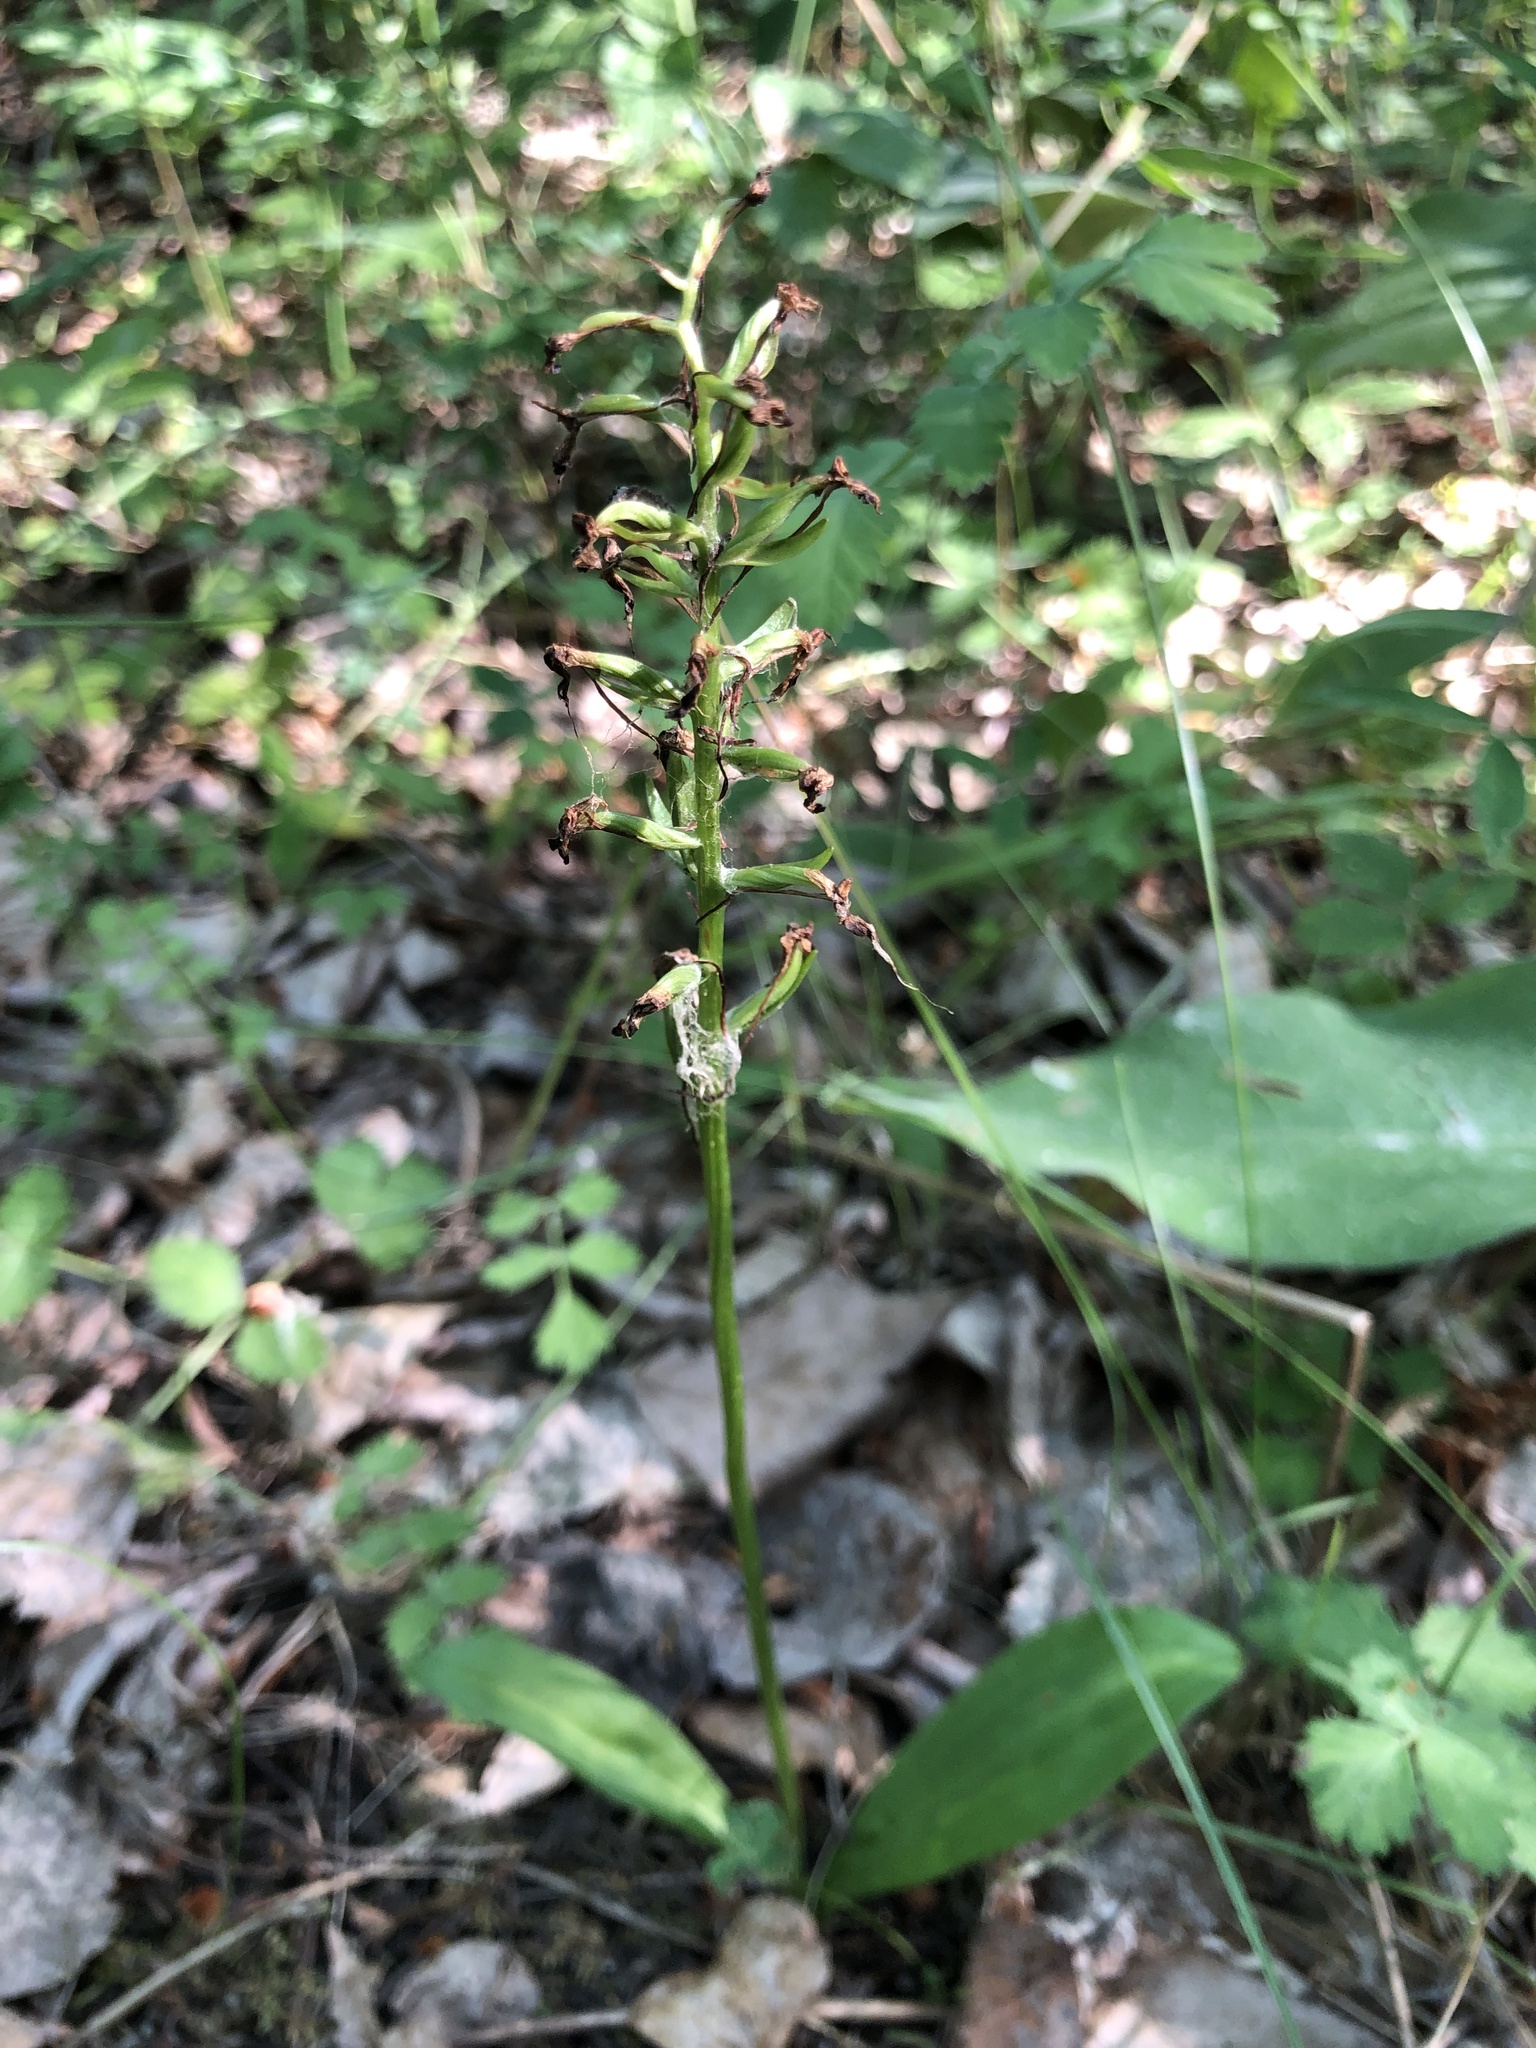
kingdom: Plantae
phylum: Tracheophyta
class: Liliopsida
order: Asparagales
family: Orchidaceae
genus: Platanthera
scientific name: Platanthera bifolia
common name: Lesser butterfly-orchid
